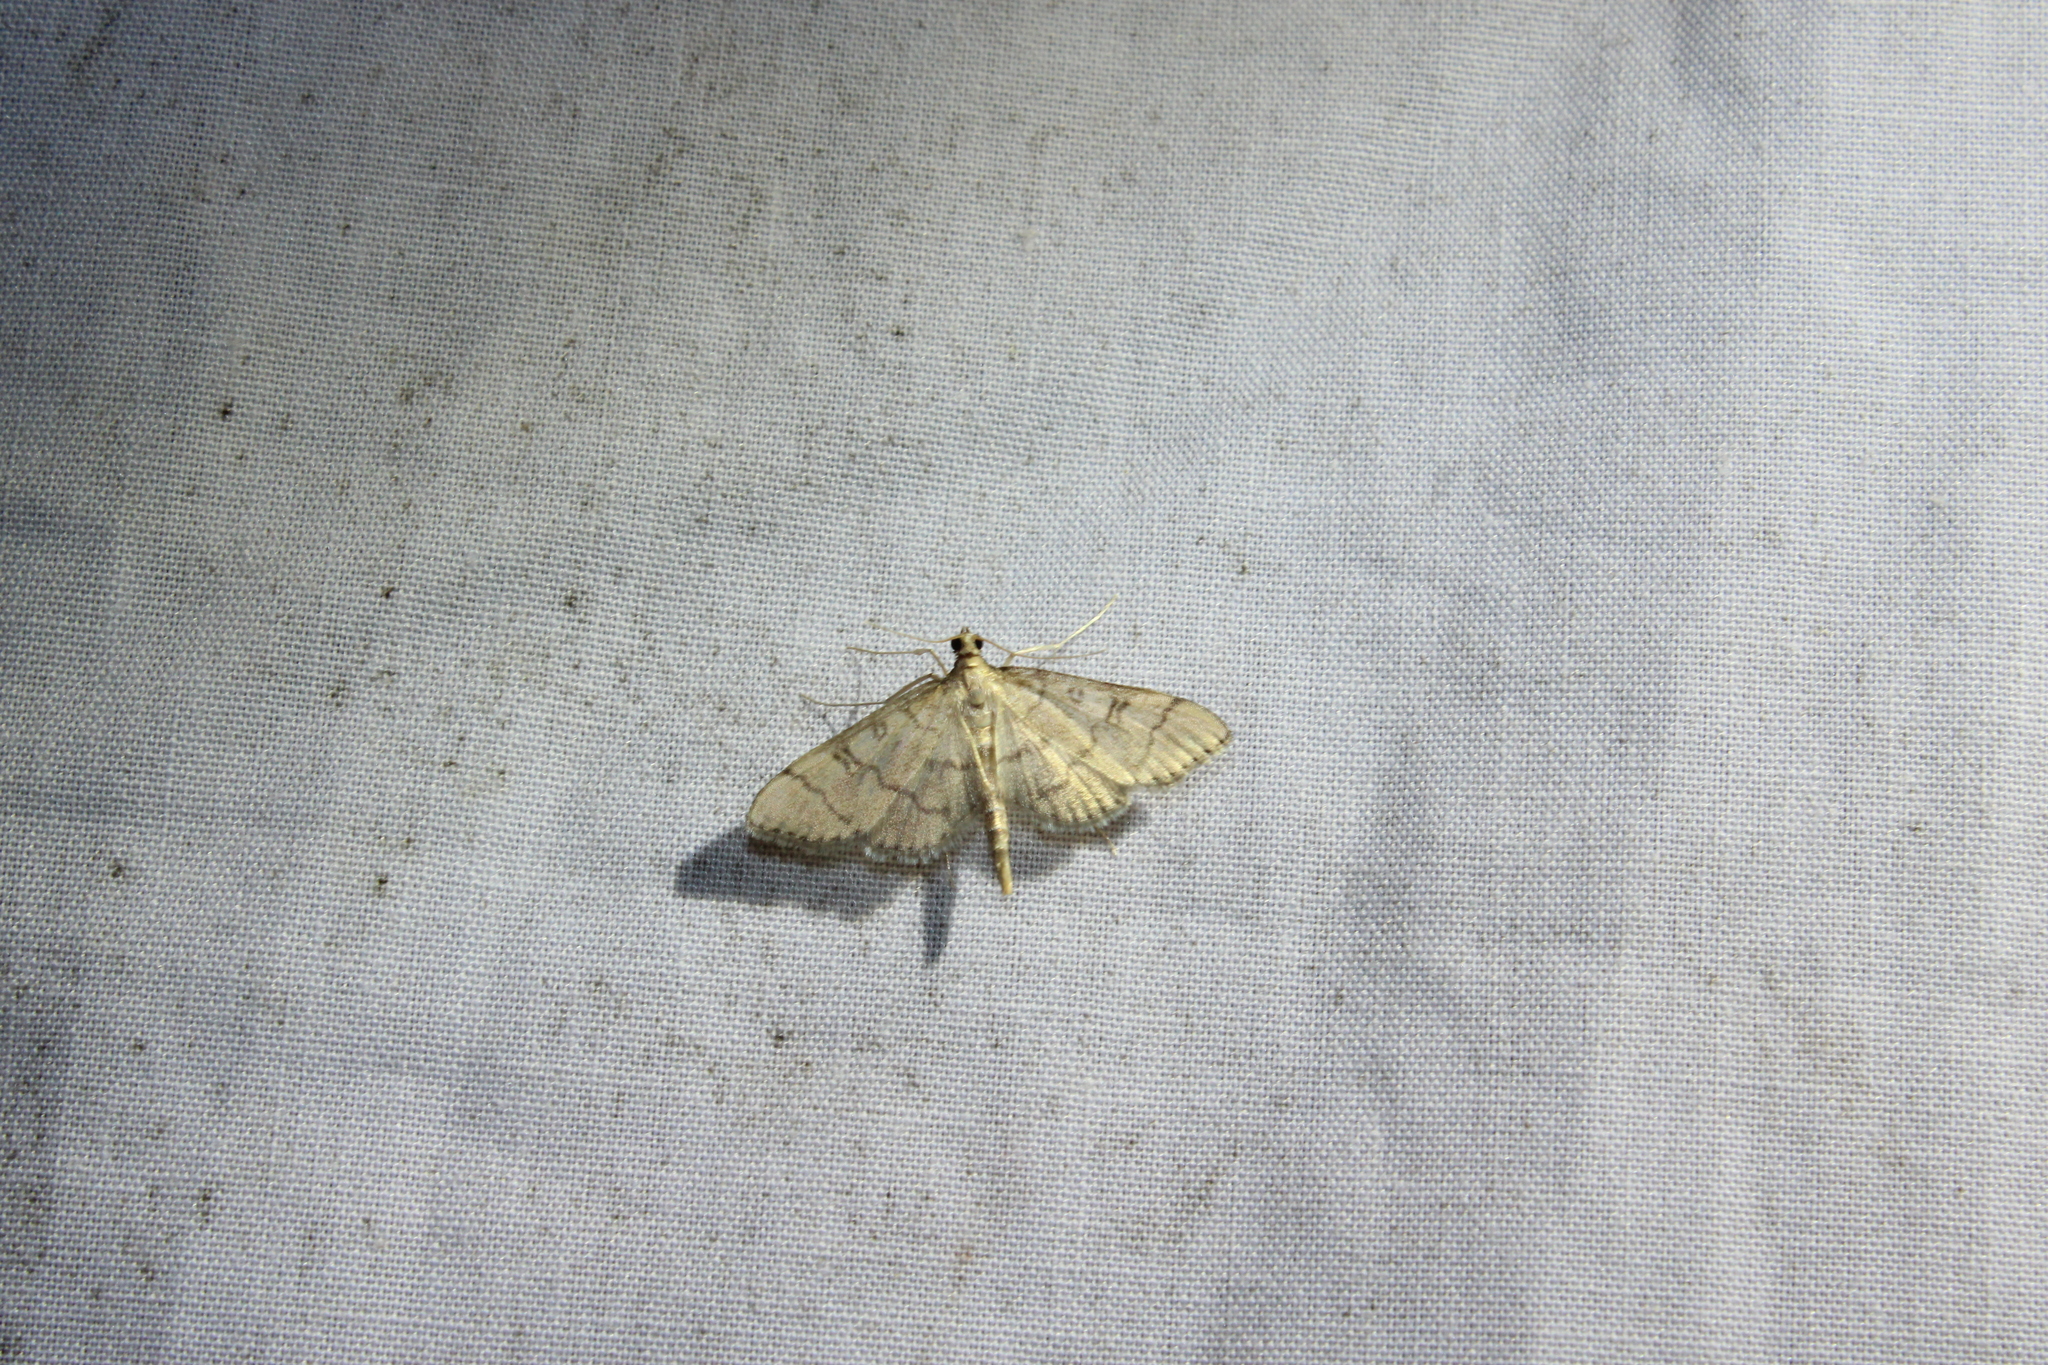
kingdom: Animalia
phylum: Arthropoda
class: Insecta
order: Lepidoptera
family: Crambidae
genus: Lamprosema
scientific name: Lamprosema Blepharomastix ranalis
